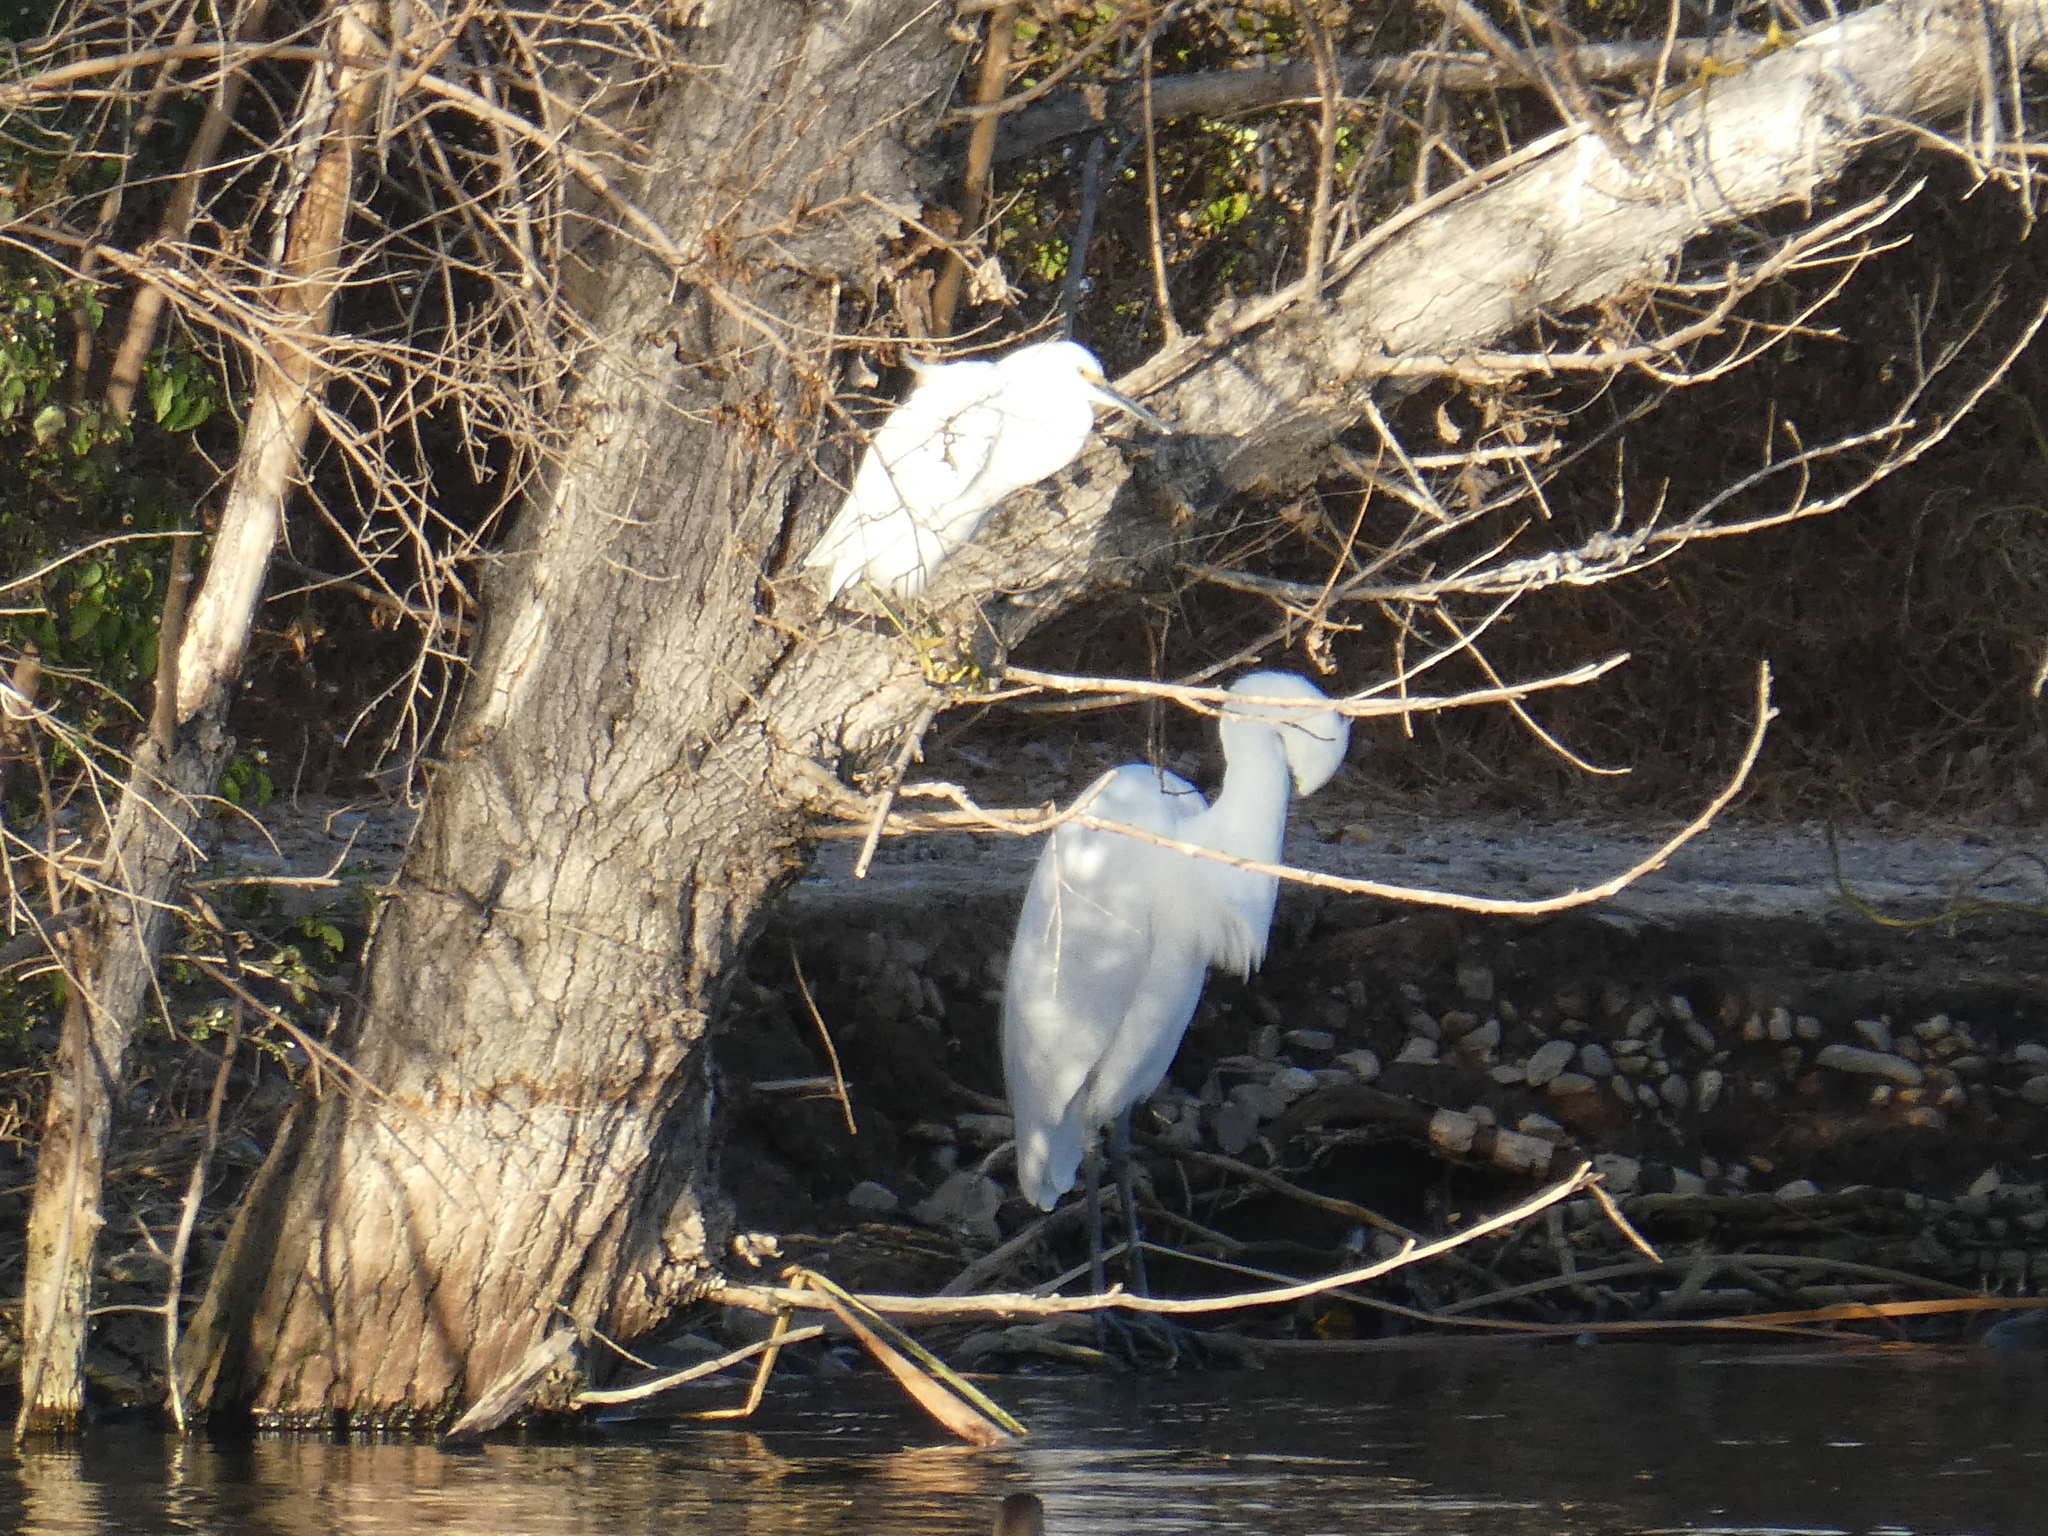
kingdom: Animalia
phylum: Chordata
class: Aves
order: Pelecaniformes
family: Ardeidae
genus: Egretta
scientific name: Egretta thula
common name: Snowy egret
